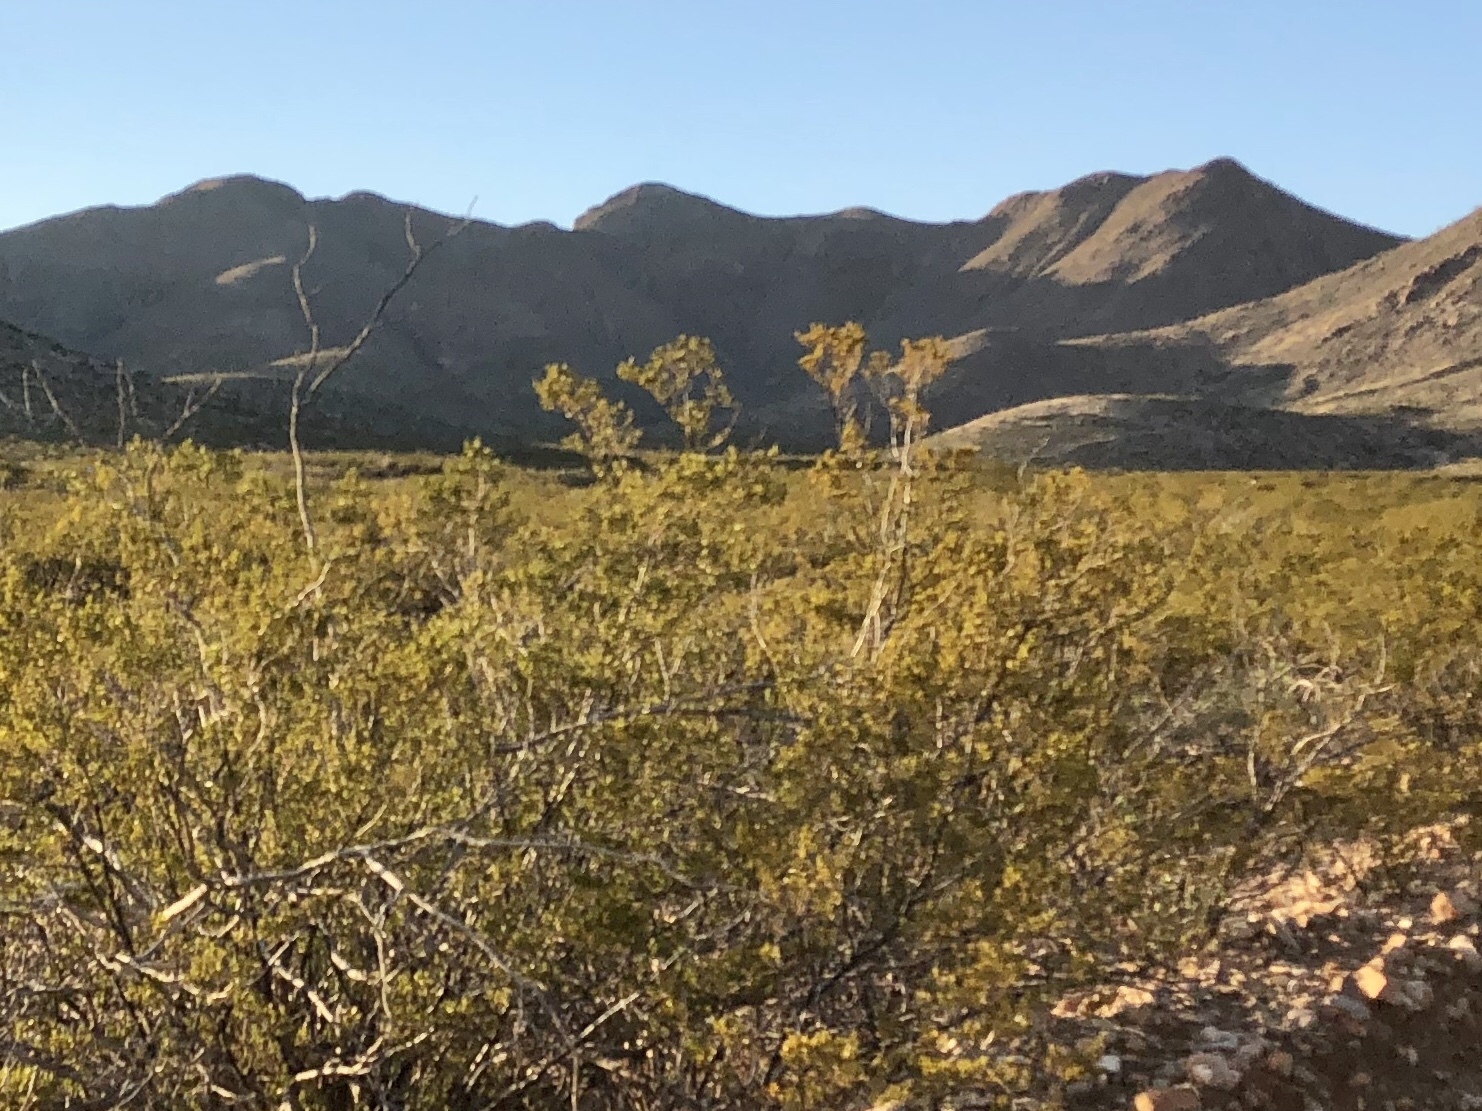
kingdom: Plantae
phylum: Tracheophyta
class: Magnoliopsida
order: Zygophyllales
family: Zygophyllaceae
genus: Larrea
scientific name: Larrea tridentata
